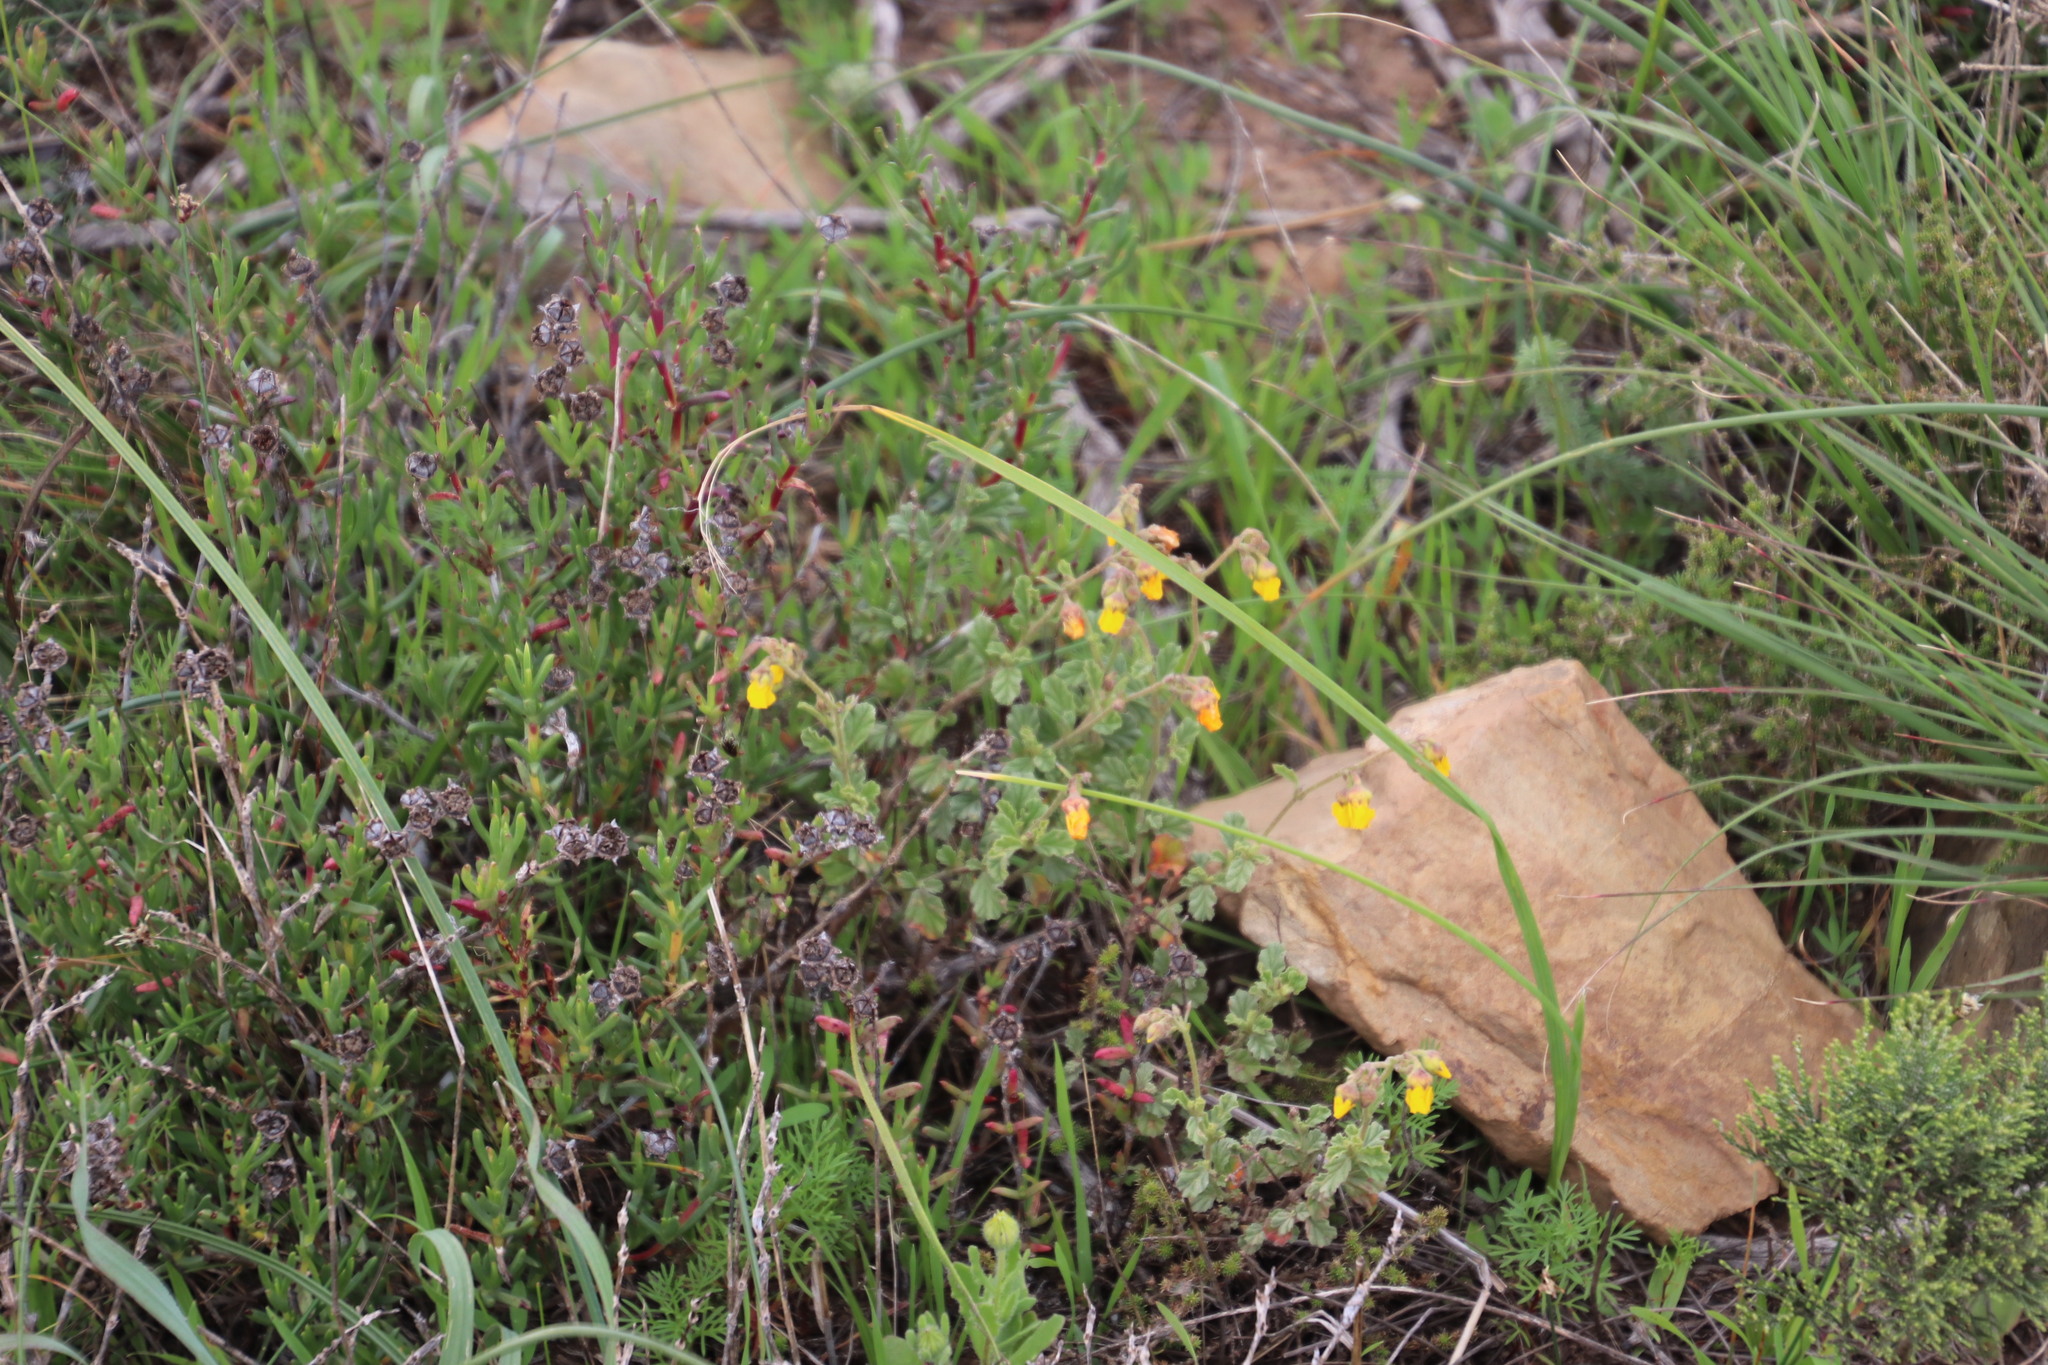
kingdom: Plantae
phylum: Tracheophyta
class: Magnoliopsida
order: Malvales
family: Malvaceae
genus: Hermannia
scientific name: Hermannia multiflora
